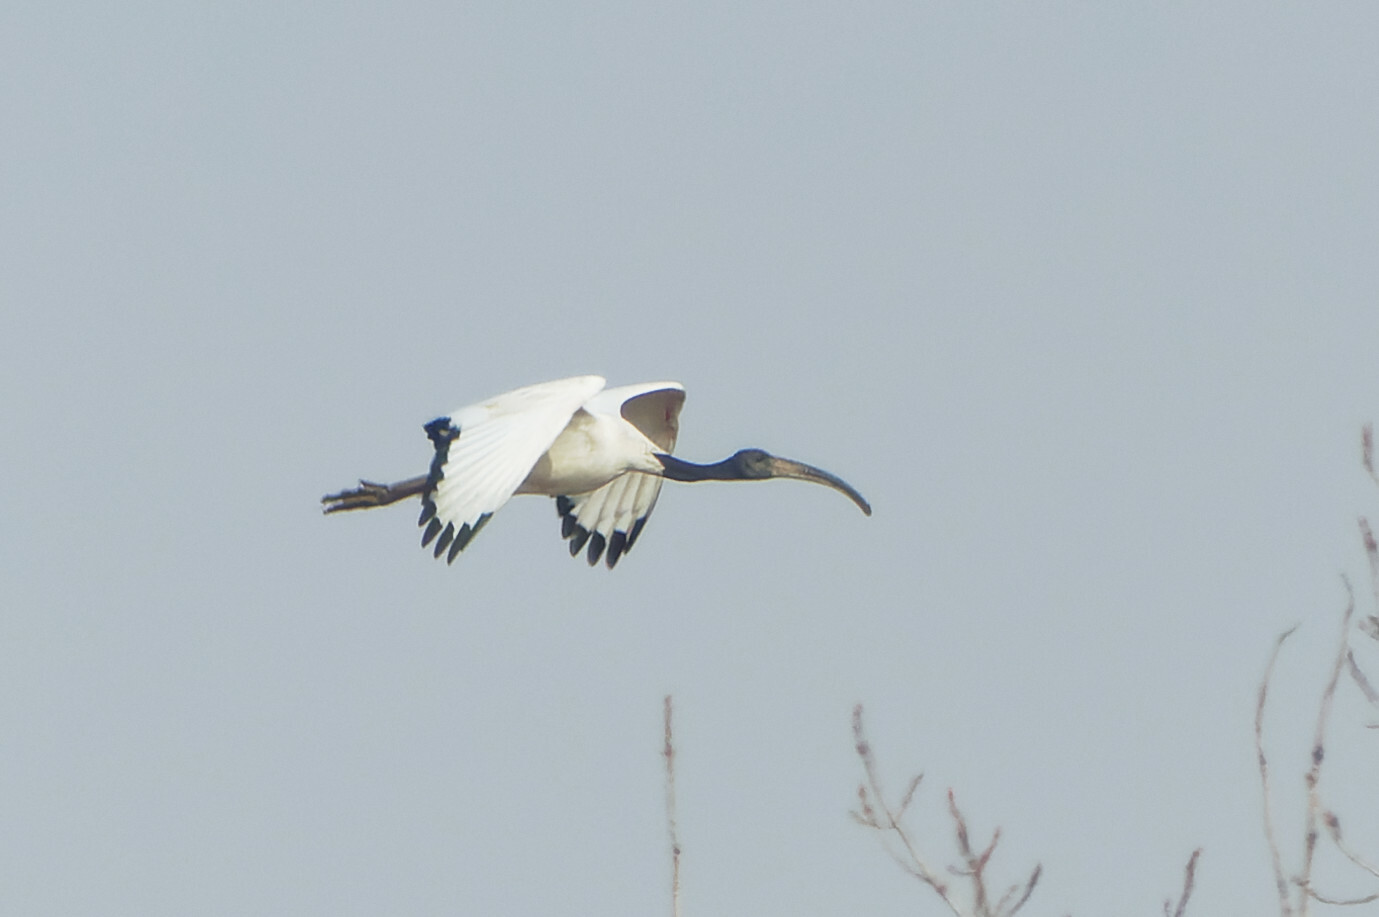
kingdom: Animalia
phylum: Chordata
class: Aves
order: Pelecaniformes
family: Threskiornithidae
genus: Threskiornis
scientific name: Threskiornis aethiopicus
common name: Sacred ibis
